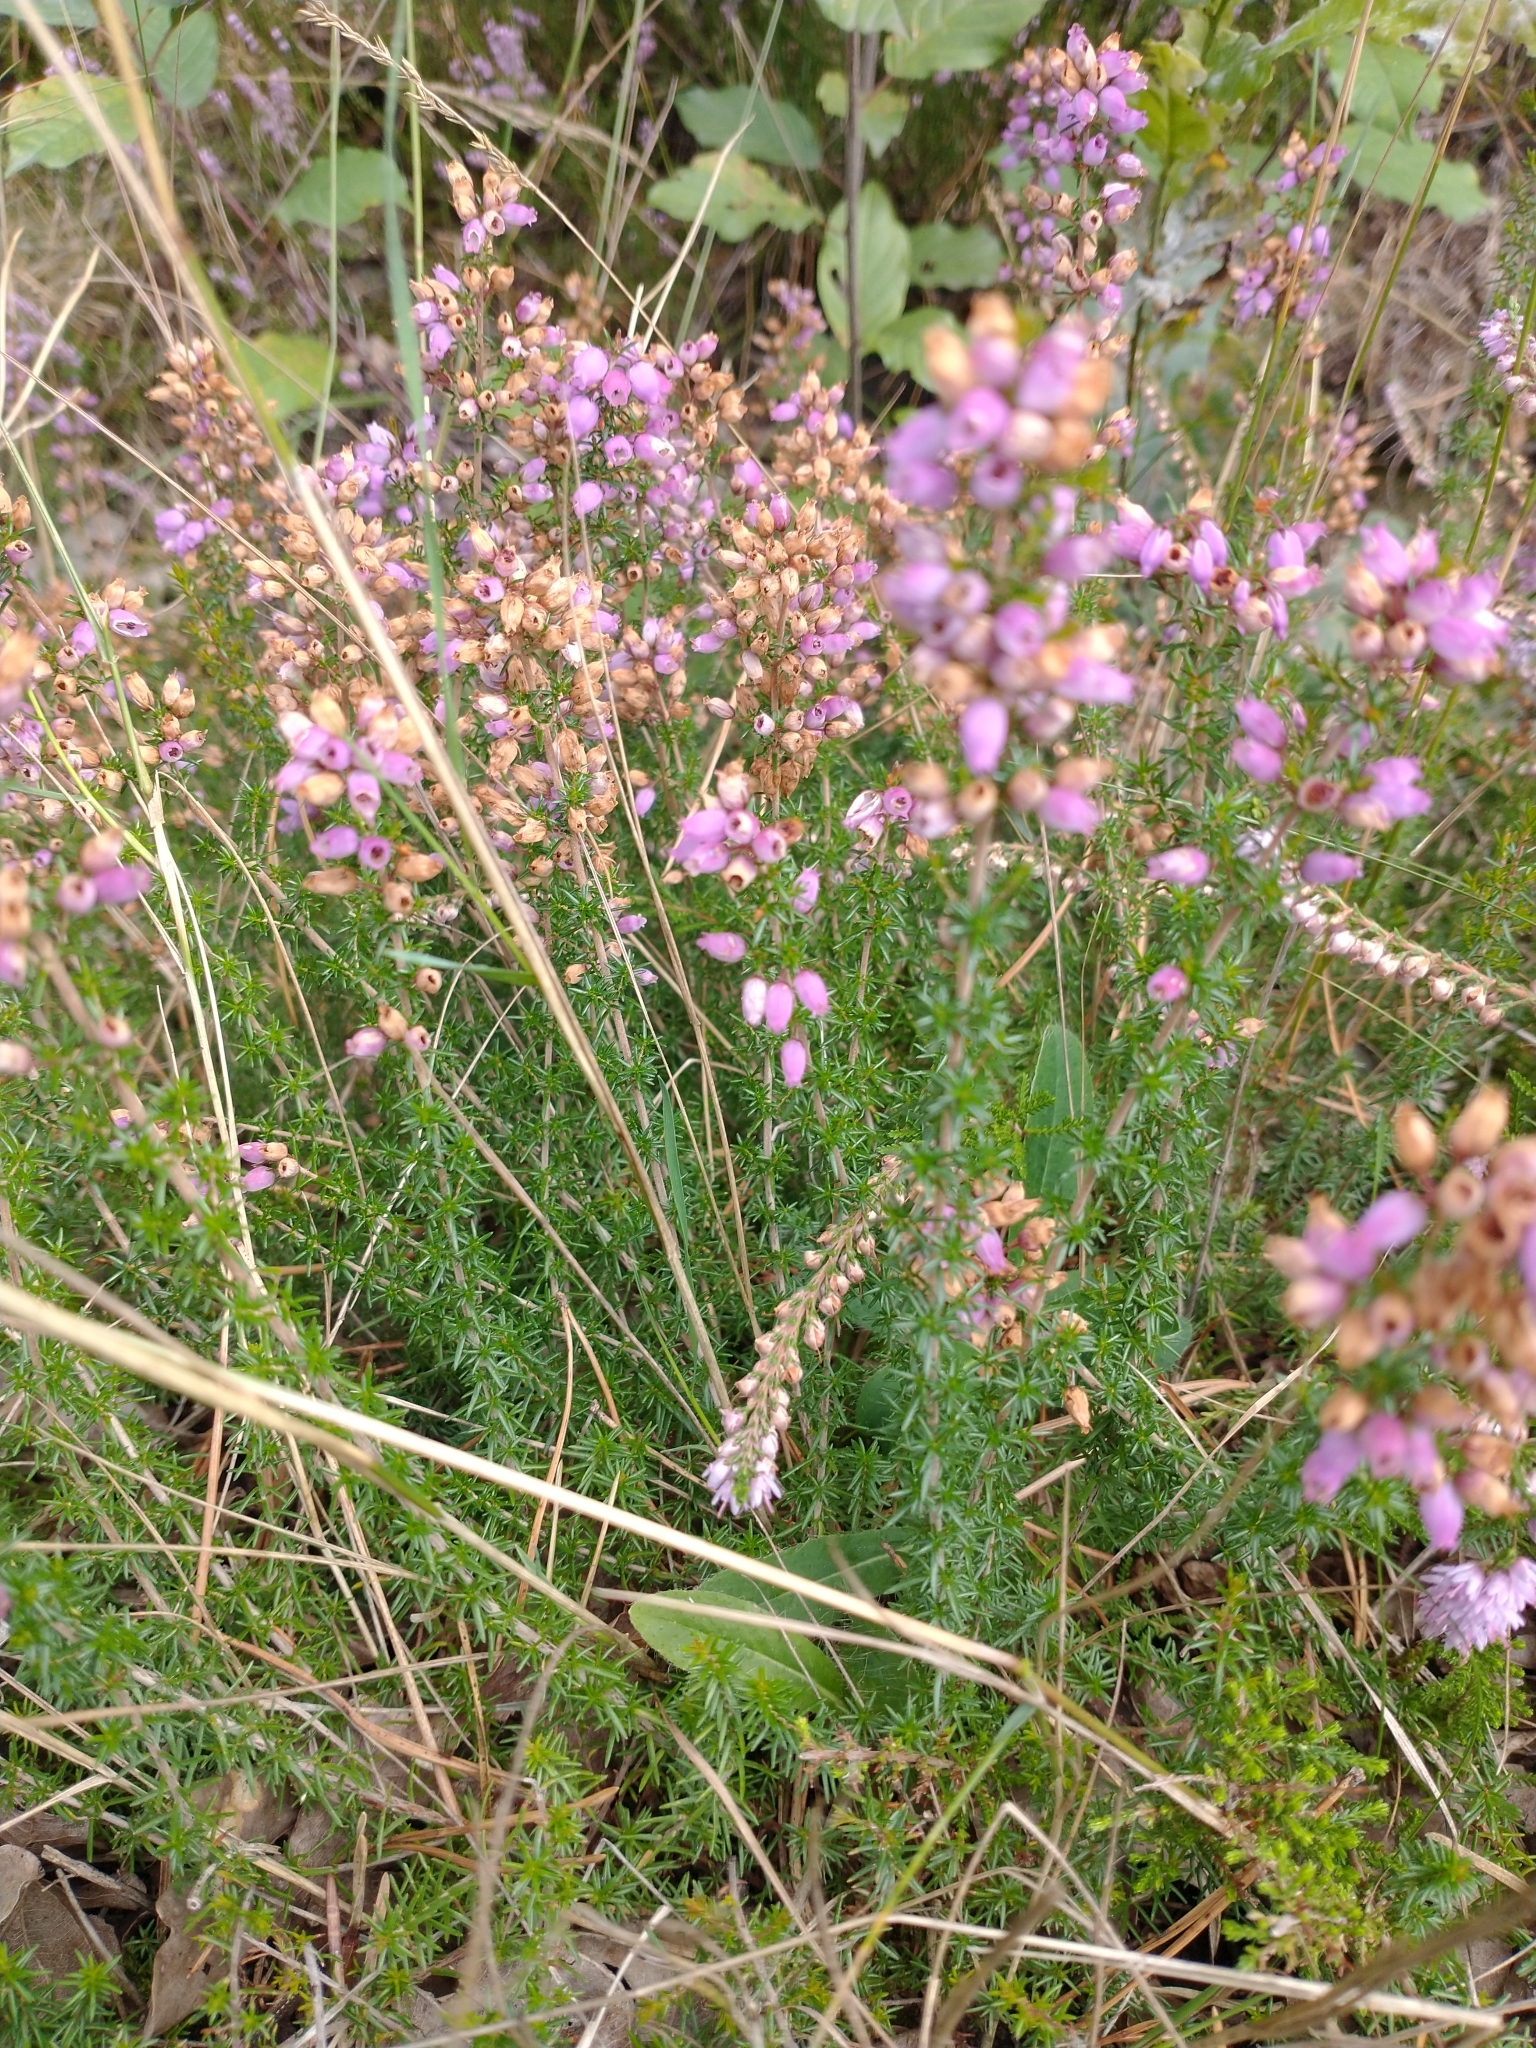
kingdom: Plantae
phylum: Tracheophyta
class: Magnoliopsida
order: Ericales
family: Ericaceae
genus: Erica
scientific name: Erica cinerea
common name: Bell heather
